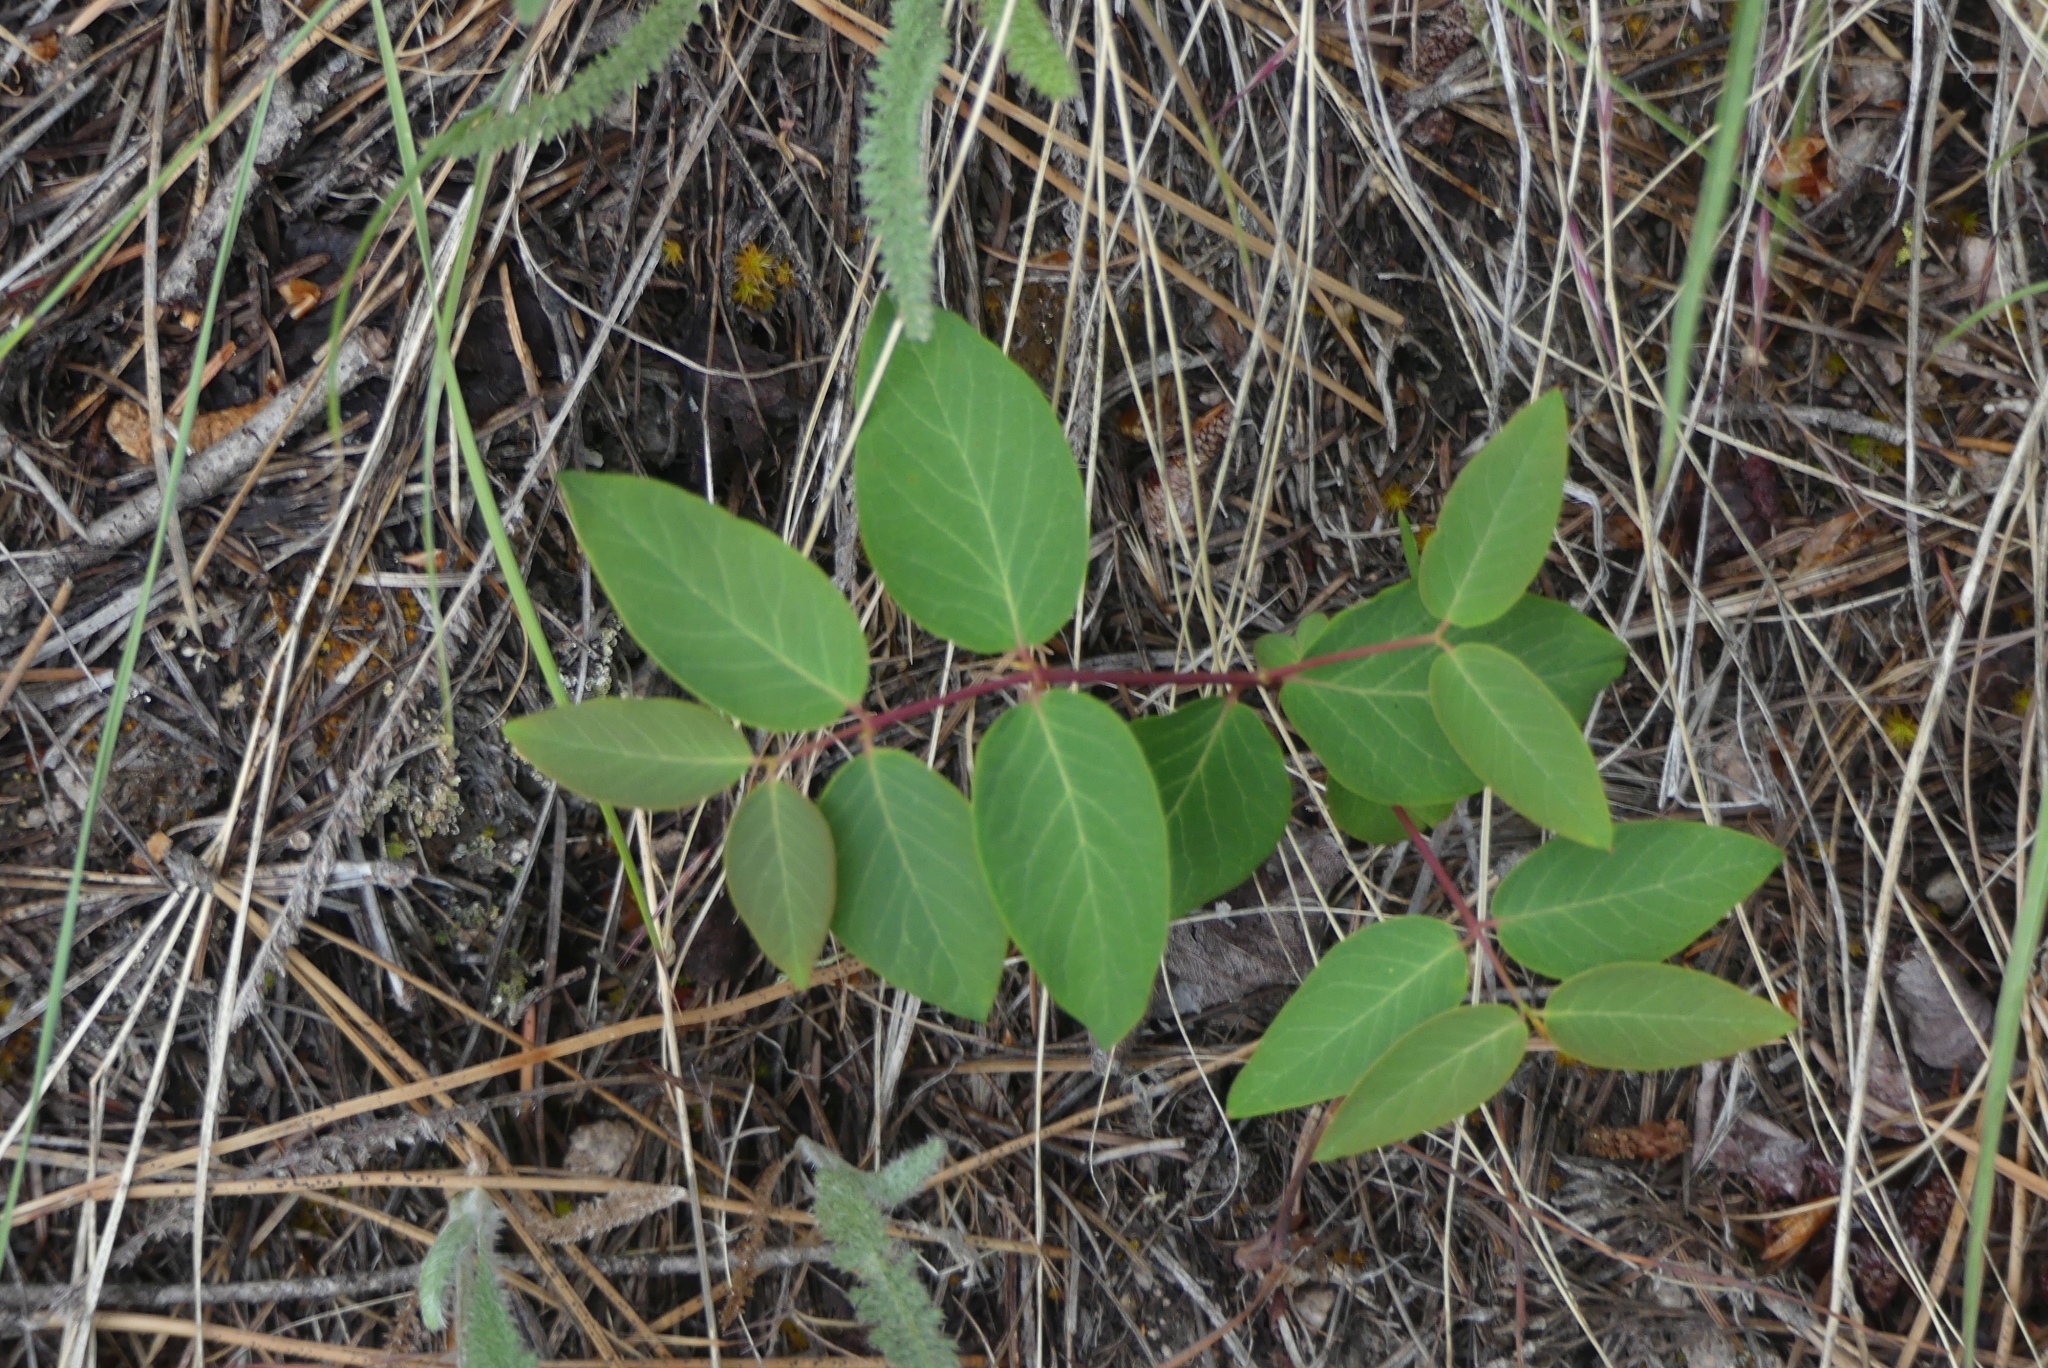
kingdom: Plantae
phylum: Tracheophyta
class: Magnoliopsida
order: Gentianales
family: Apocynaceae
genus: Apocynum
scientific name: Apocynum androsaemifolium
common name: Spreading dogbane
